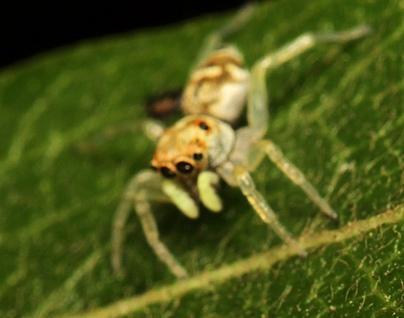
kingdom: Animalia
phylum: Arthropoda
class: Arachnida
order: Araneae
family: Salticidae
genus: Phintella
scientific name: Phintella aequipes
